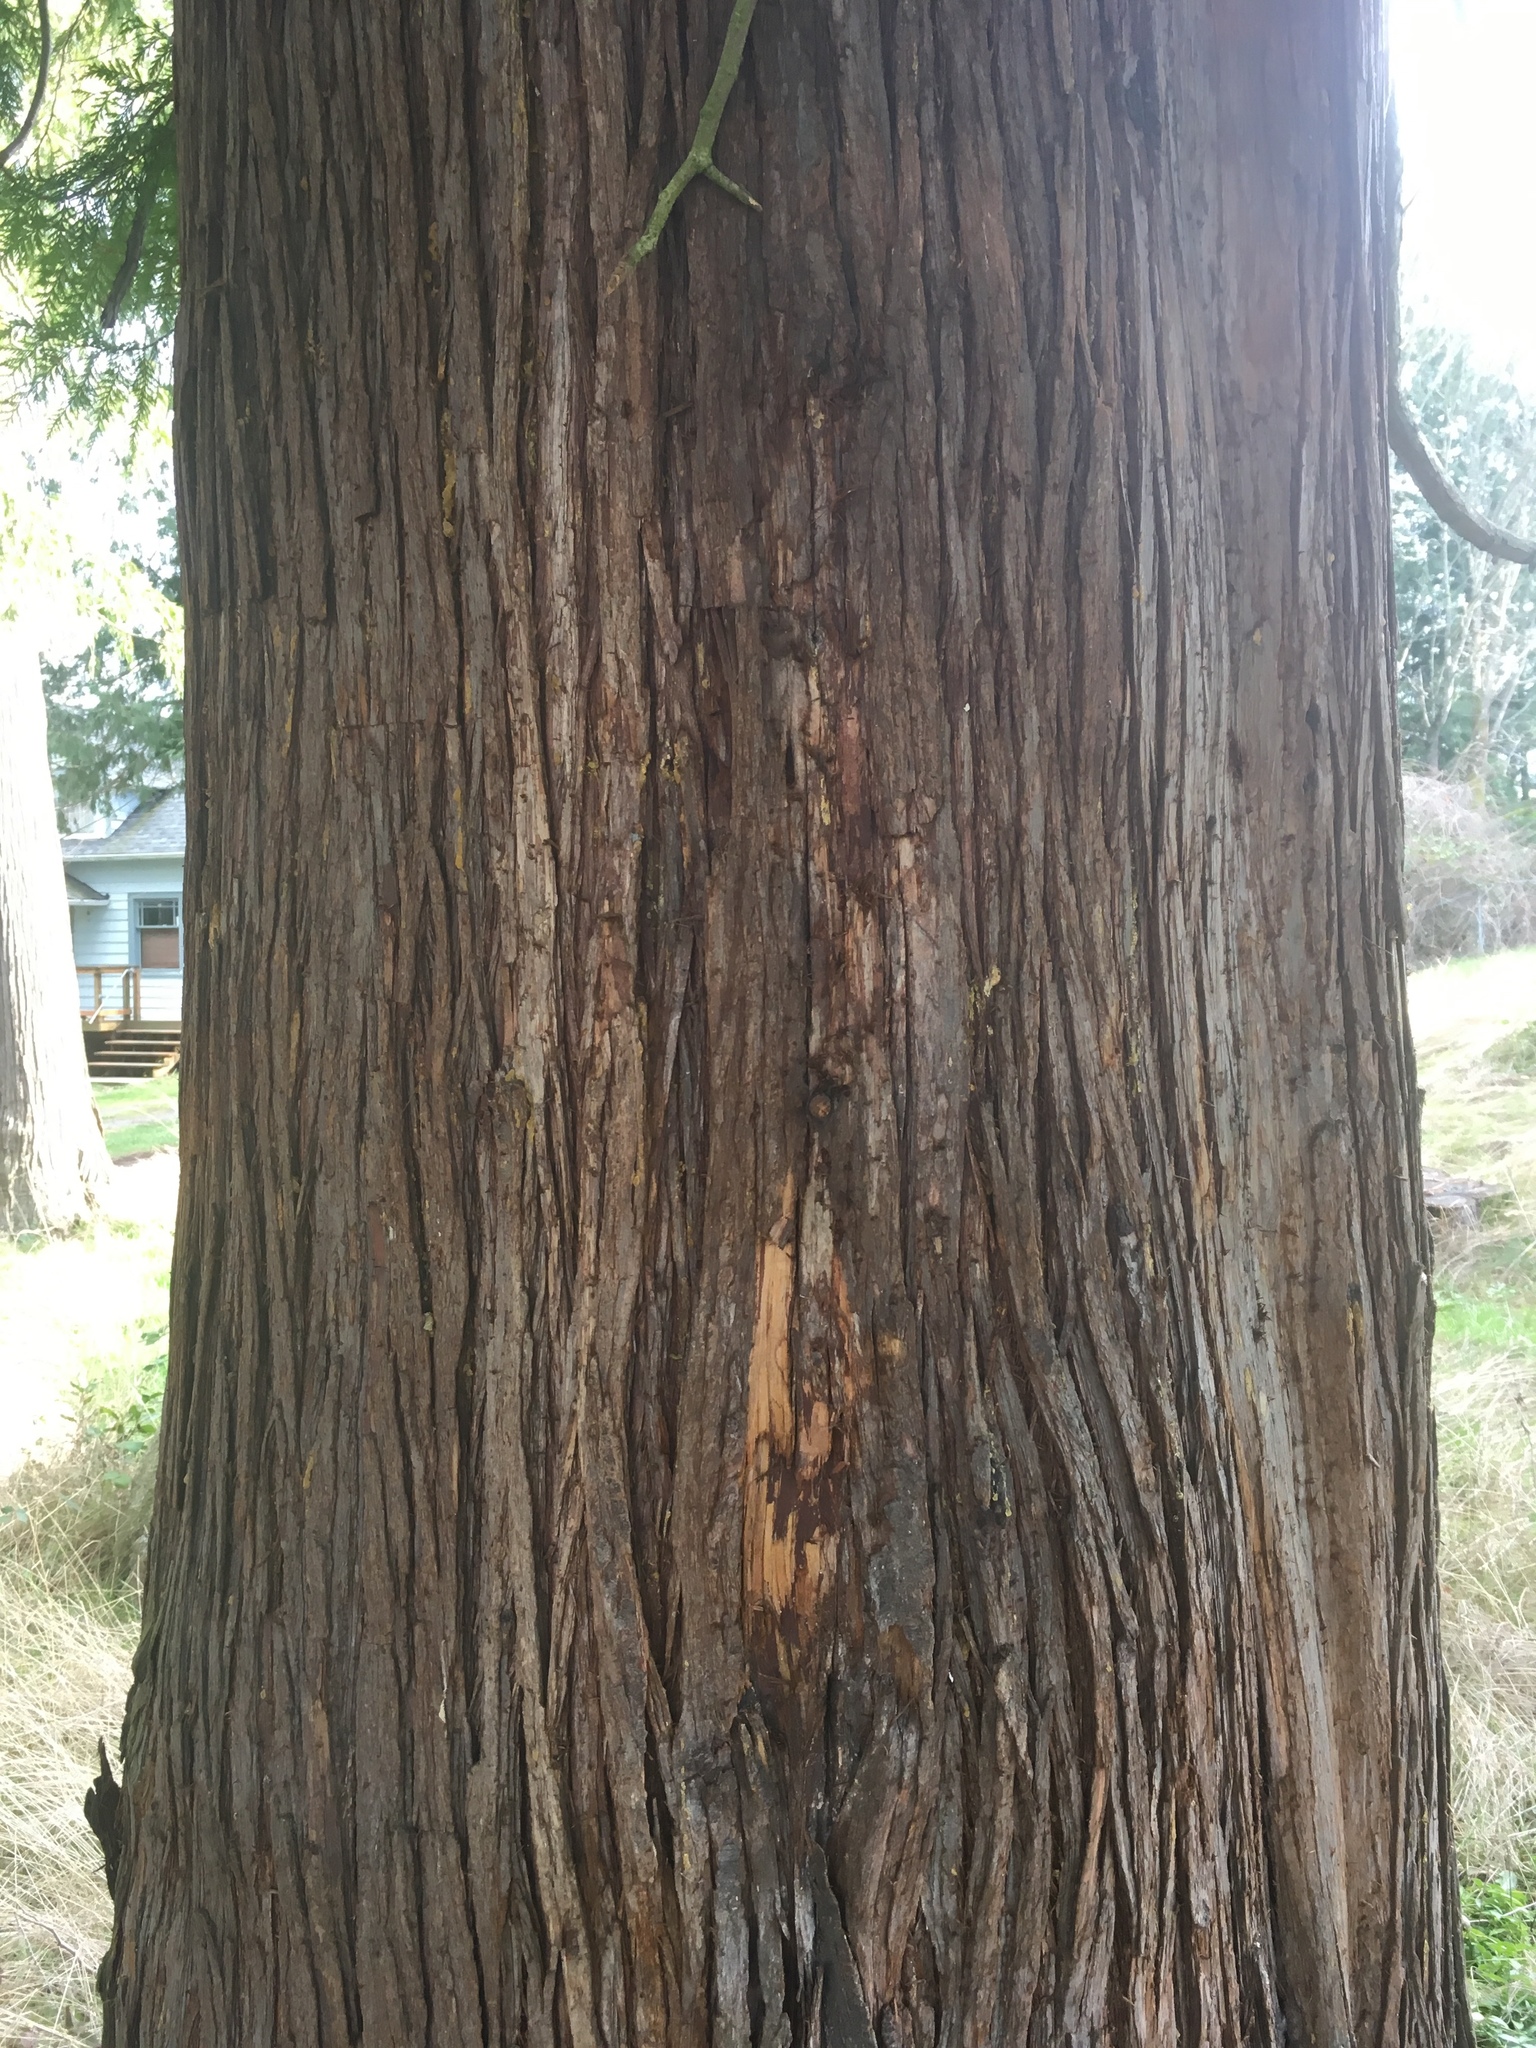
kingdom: Plantae
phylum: Tracheophyta
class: Pinopsida
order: Pinales
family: Cupressaceae
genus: Thuja
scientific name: Thuja plicata
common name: Western red-cedar
